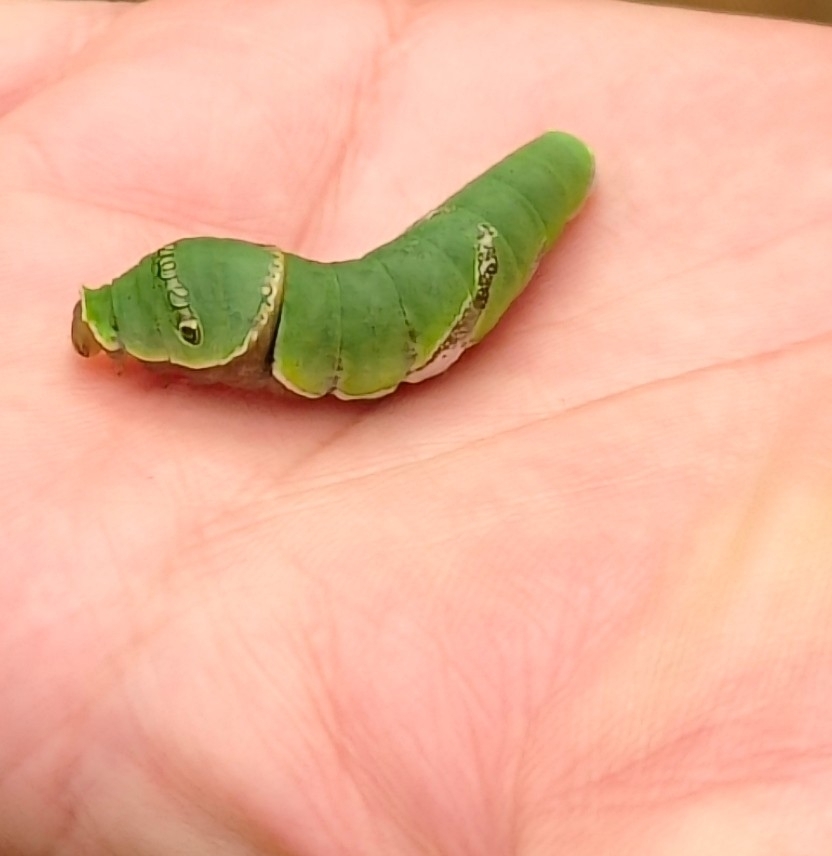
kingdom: Animalia
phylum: Arthropoda
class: Insecta
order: Lepidoptera
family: Papilionidae
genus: Papilio
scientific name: Papilio polytes
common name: Common mormon
